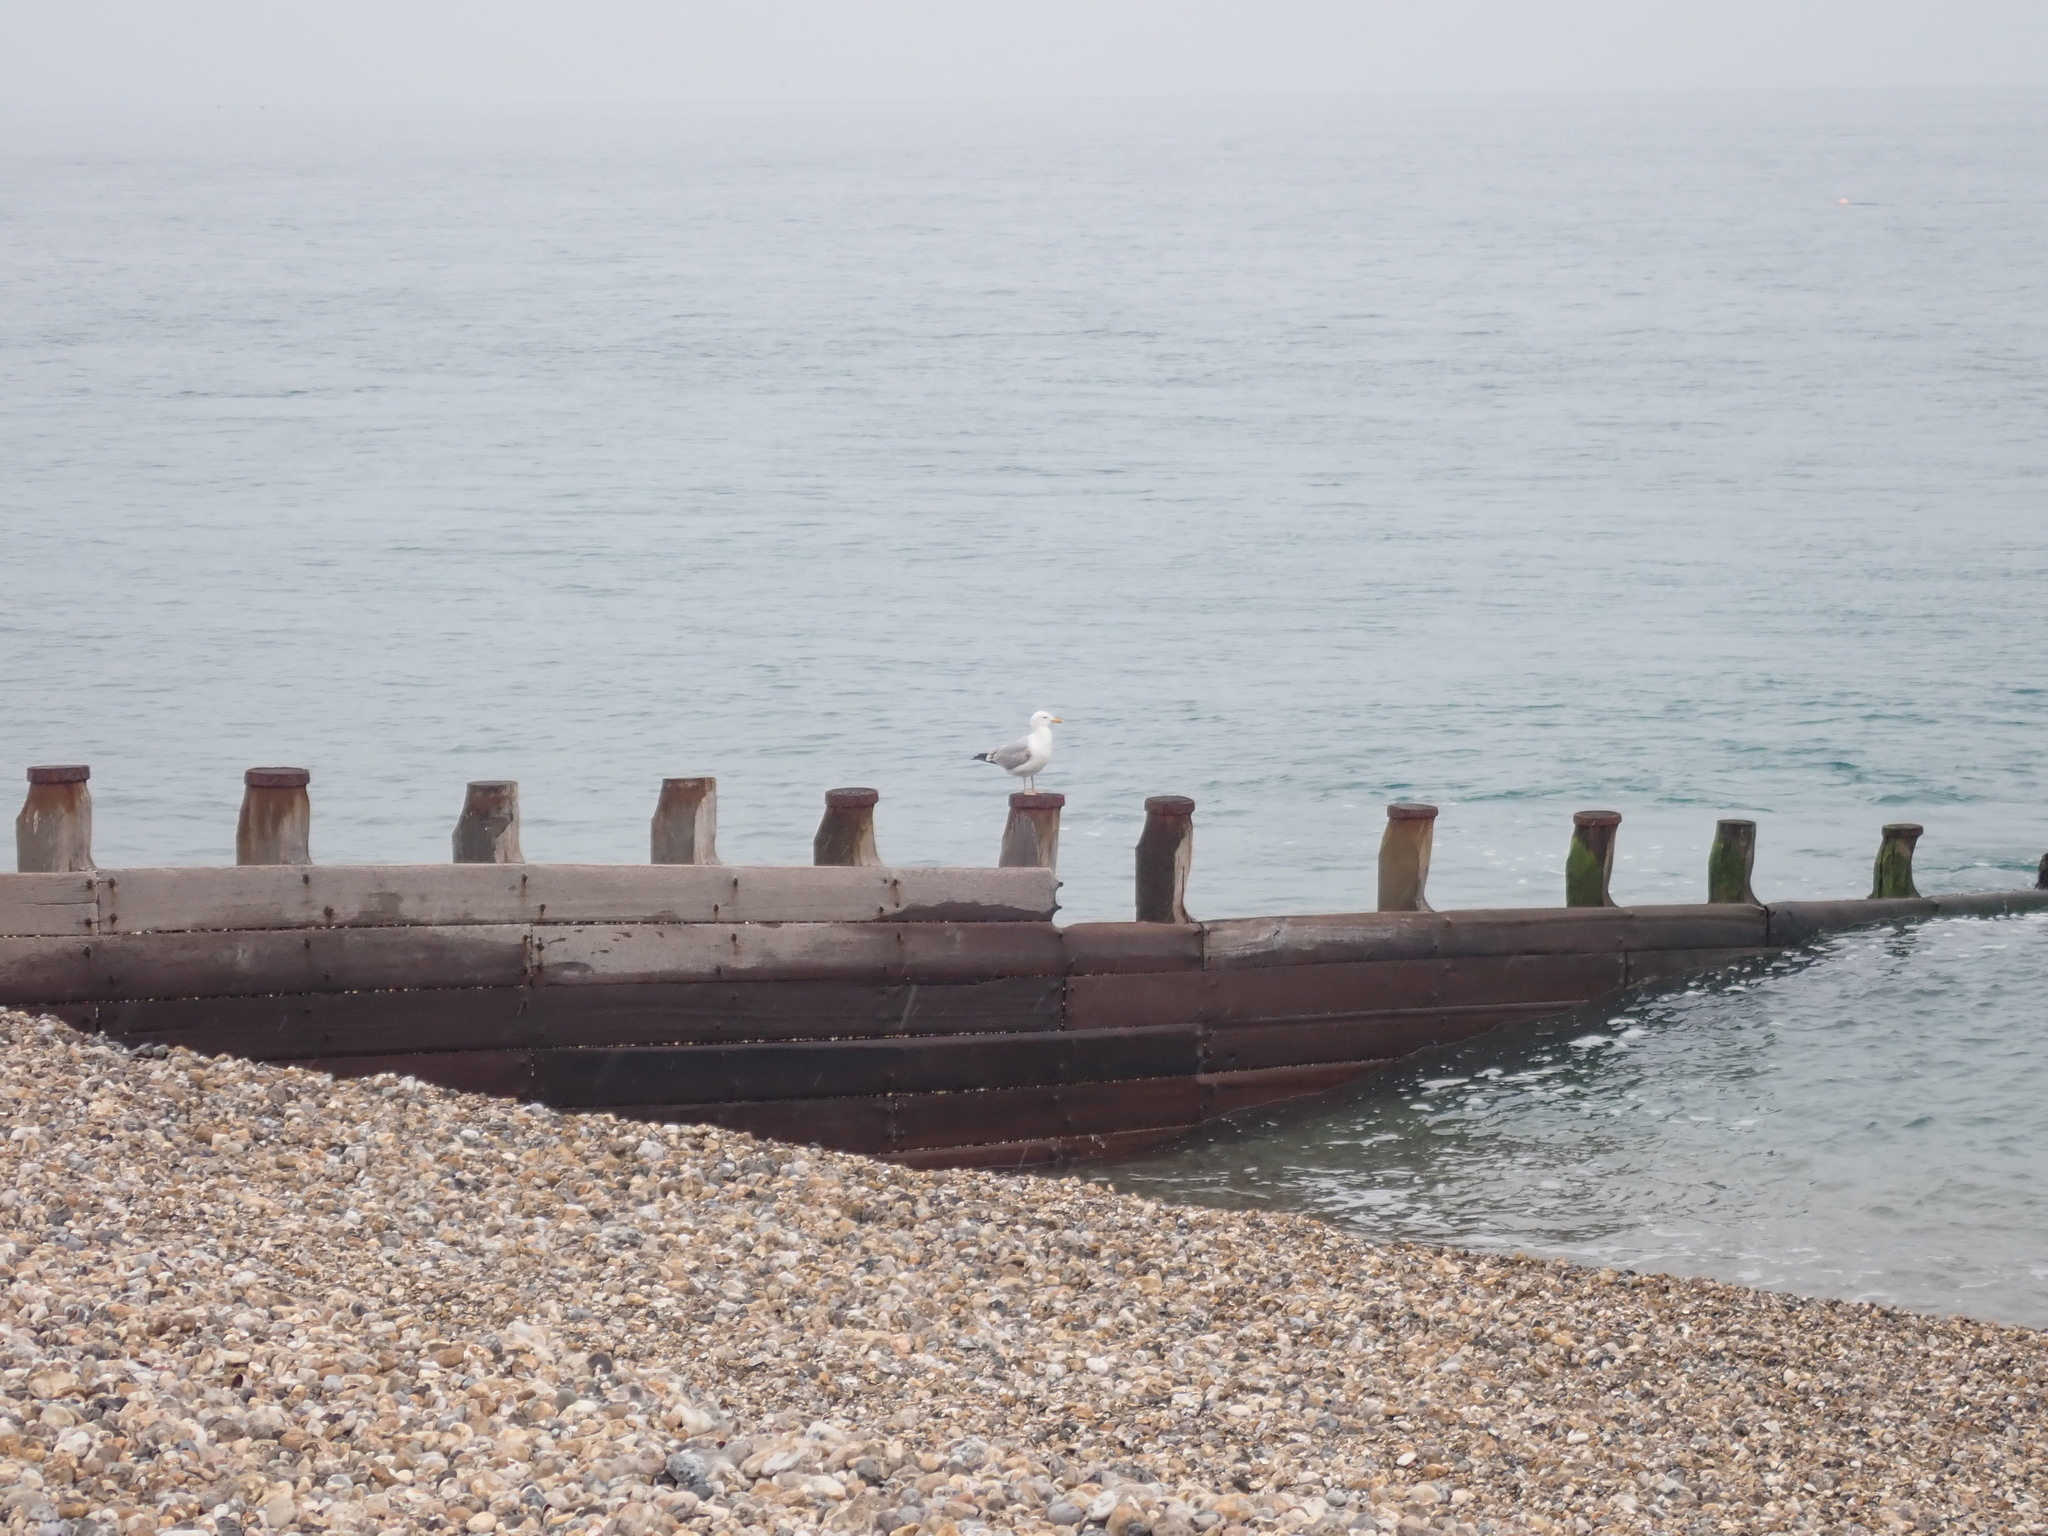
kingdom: Animalia
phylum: Chordata
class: Aves
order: Charadriiformes
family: Laridae
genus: Larus
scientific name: Larus argentatus
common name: Herring gull
